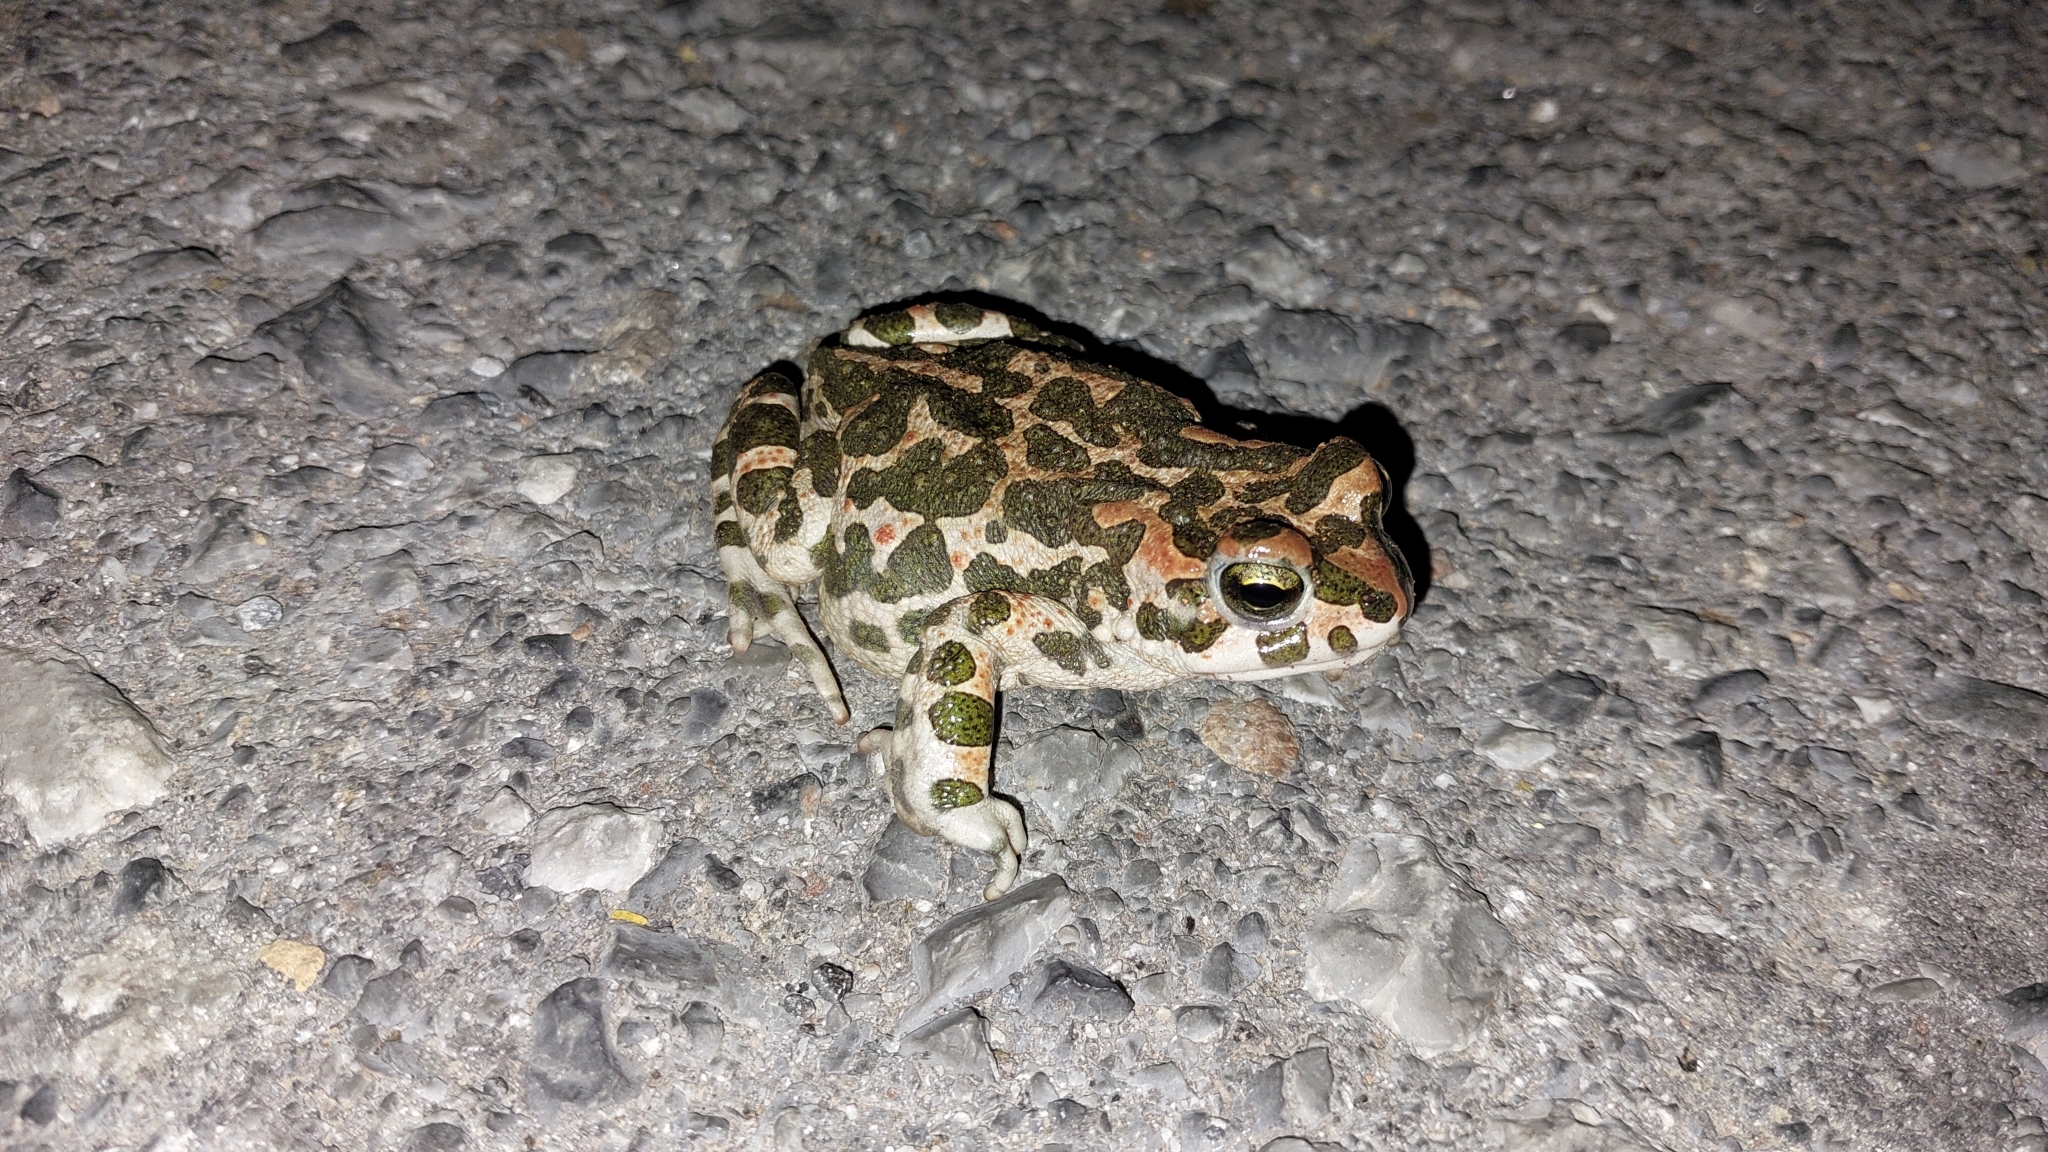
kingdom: Animalia
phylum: Chordata
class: Amphibia
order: Anura
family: Bufonidae
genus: Bufotes
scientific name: Bufotes viridis
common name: European green toad
